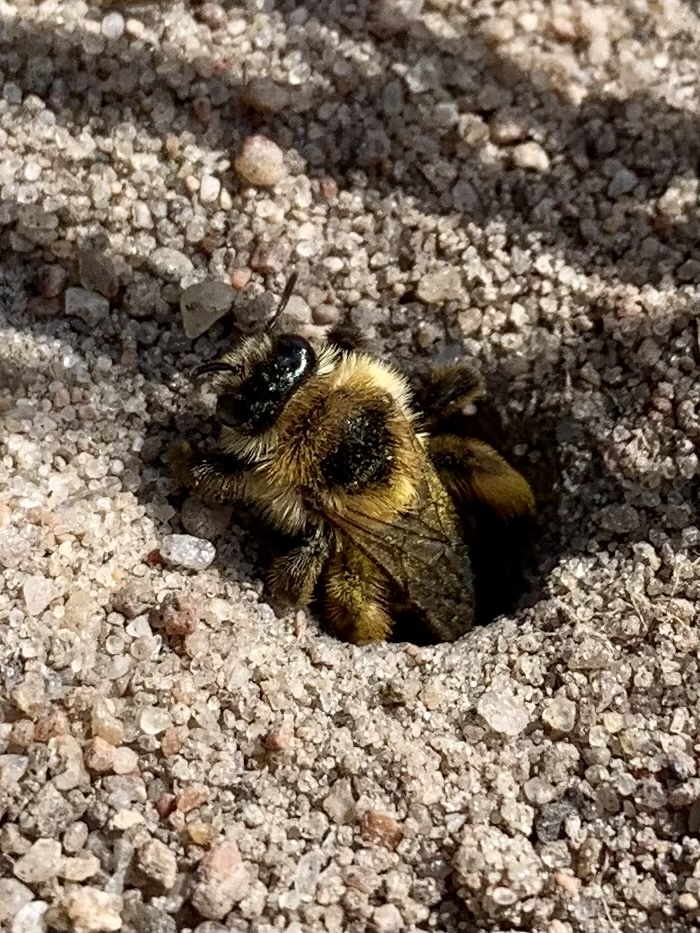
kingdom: Animalia
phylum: Arthropoda
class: Insecta
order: Hymenoptera
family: Melittidae
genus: Dasypoda
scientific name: Dasypoda hirtipes
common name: Pantaloon bee
